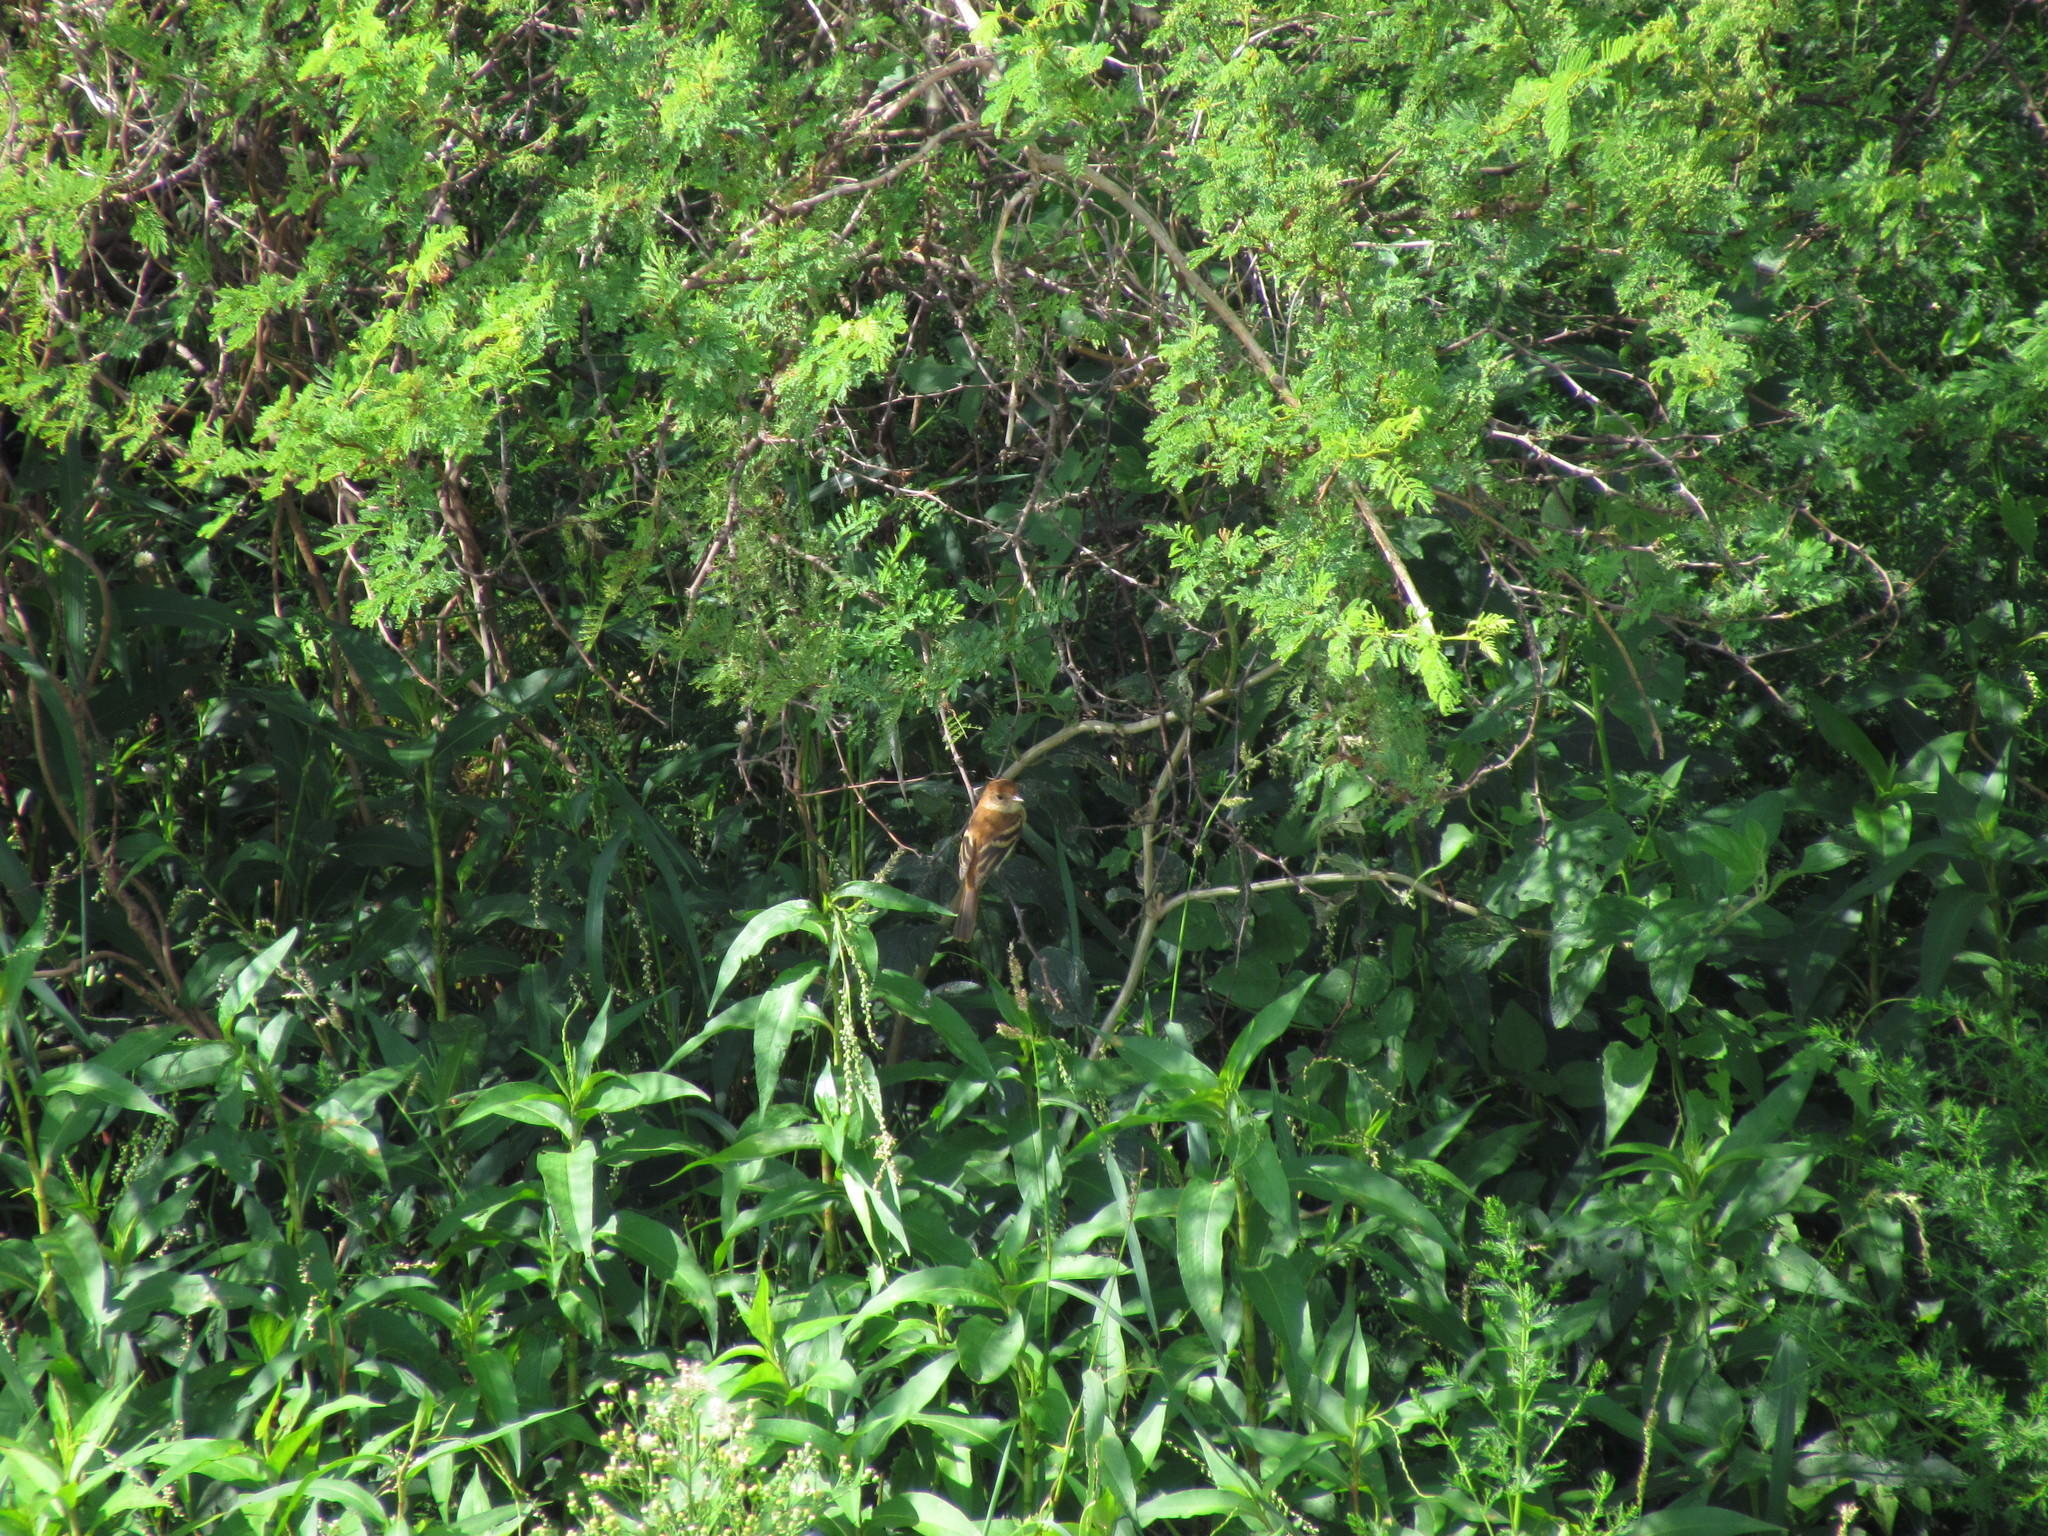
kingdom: Animalia
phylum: Chordata
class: Aves
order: Passeriformes
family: Tyrannidae
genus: Myiophobus
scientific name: Myiophobus fasciatus
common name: Bran-colored flycatcher
